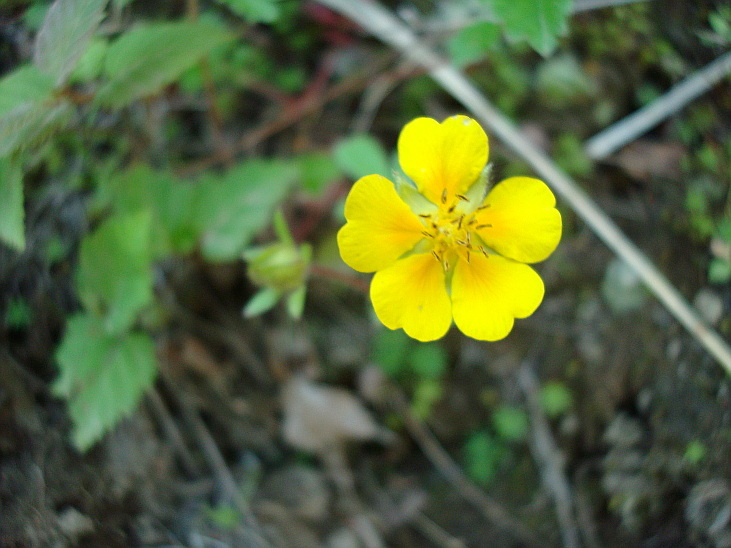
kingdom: Plantae
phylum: Tracheophyta
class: Magnoliopsida
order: Rosales
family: Rosaceae
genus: Potentilla
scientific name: Potentilla stolonifera
